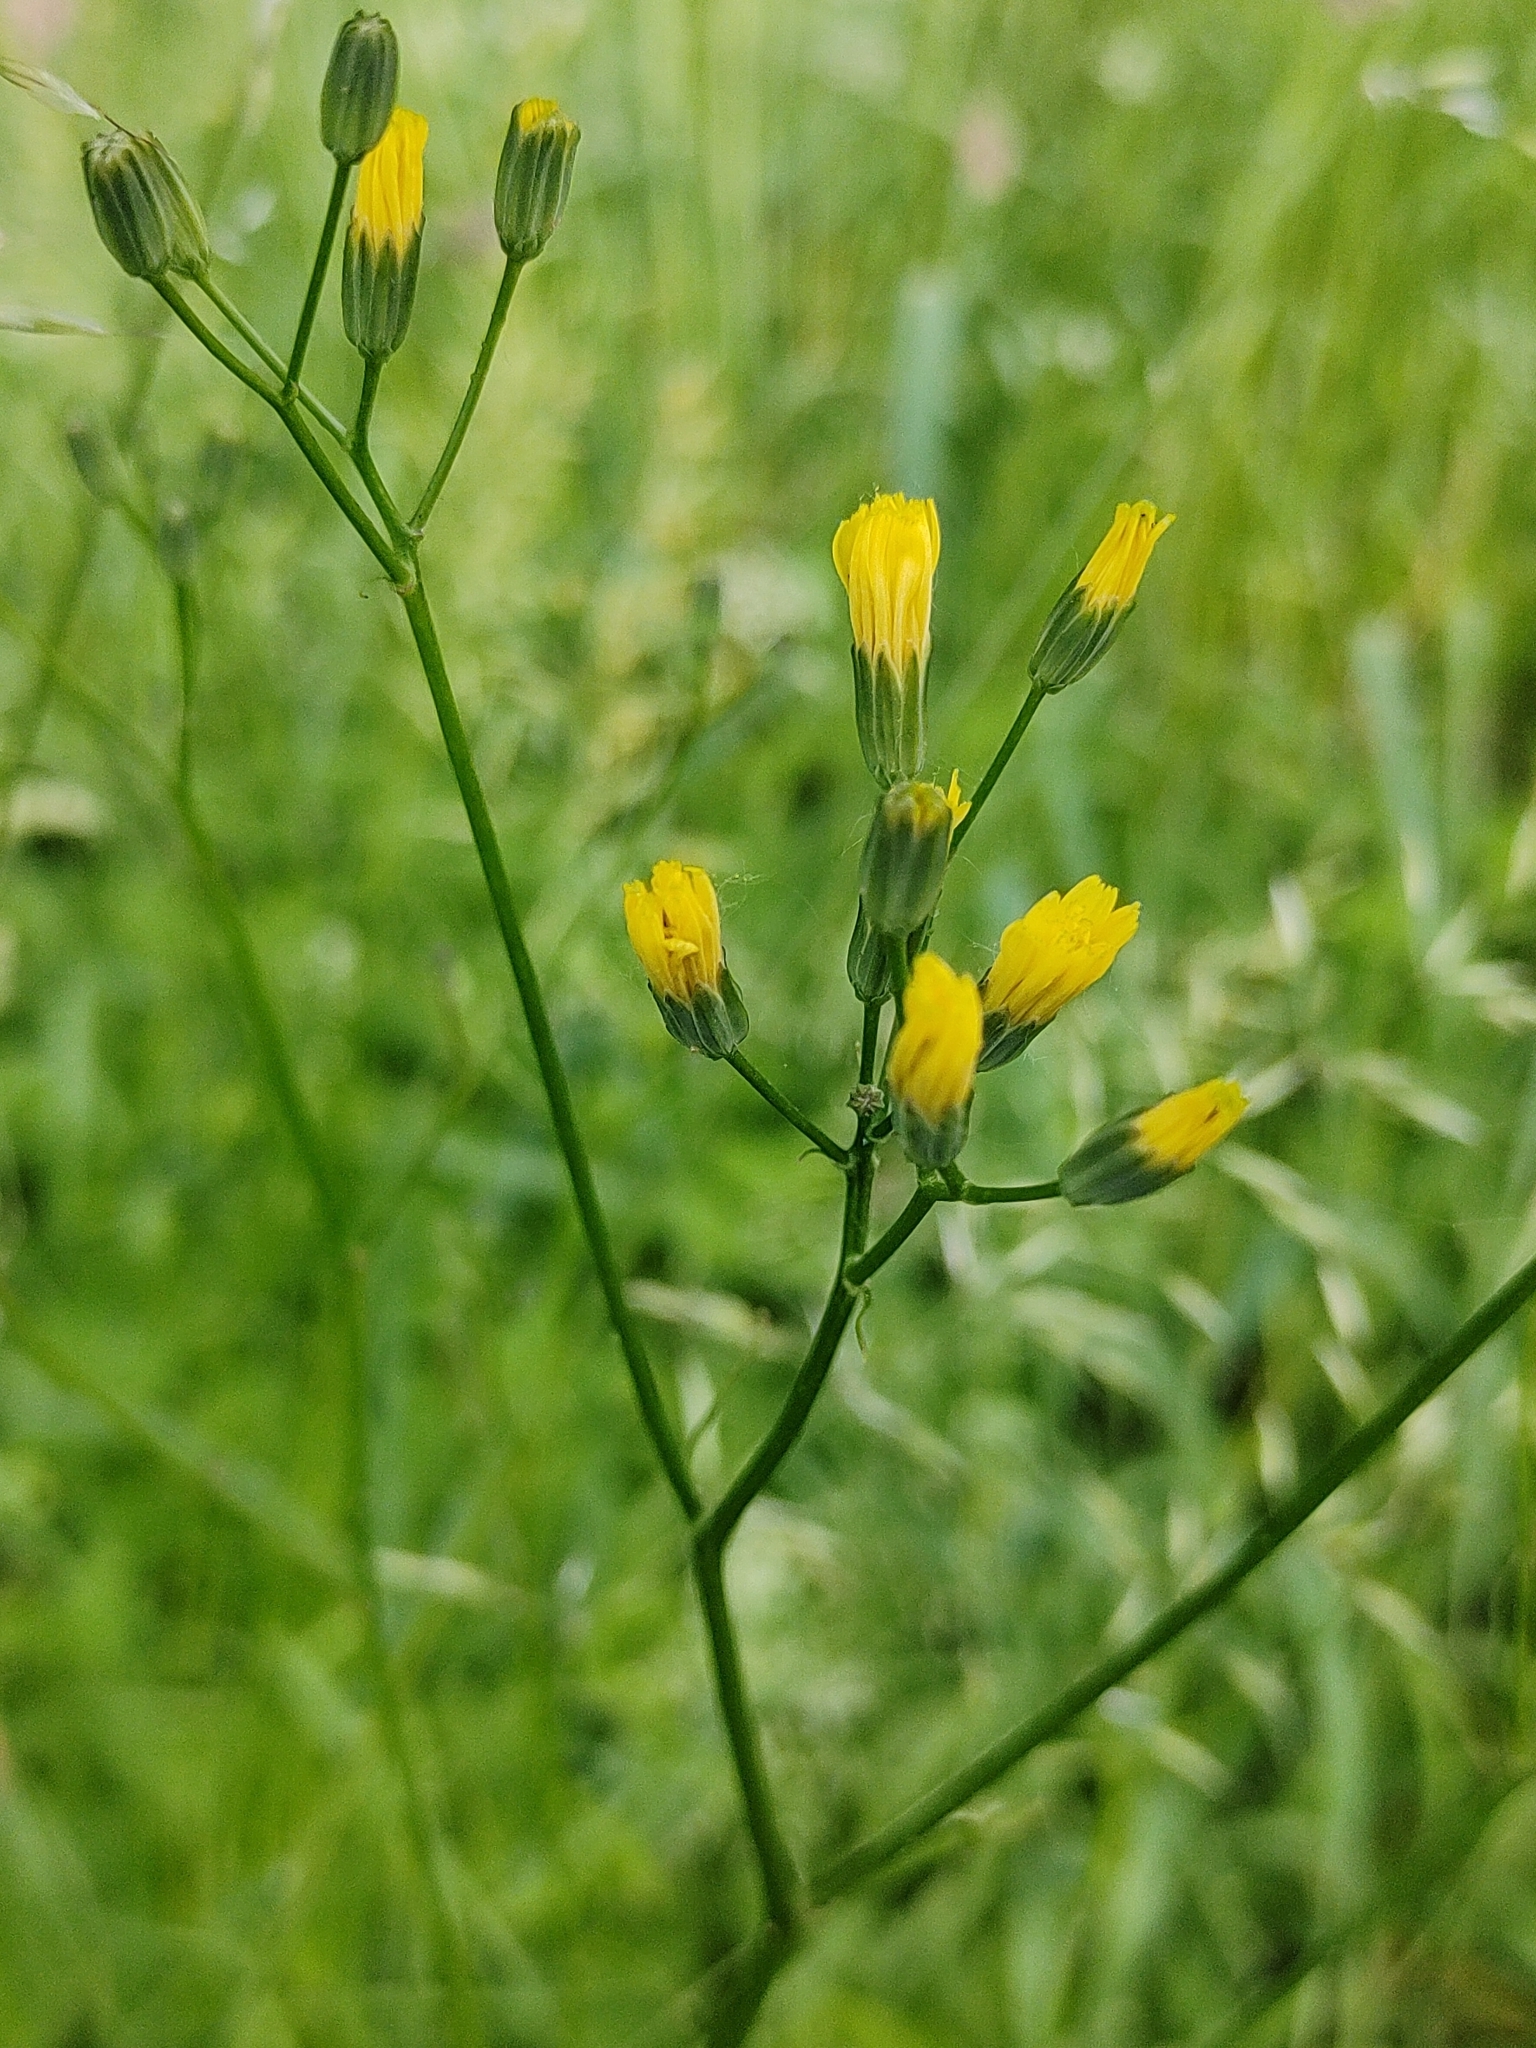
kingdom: Plantae
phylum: Tracheophyta
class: Magnoliopsida
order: Asterales
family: Asteraceae
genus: Lapsana
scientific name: Lapsana communis
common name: Nipplewort
